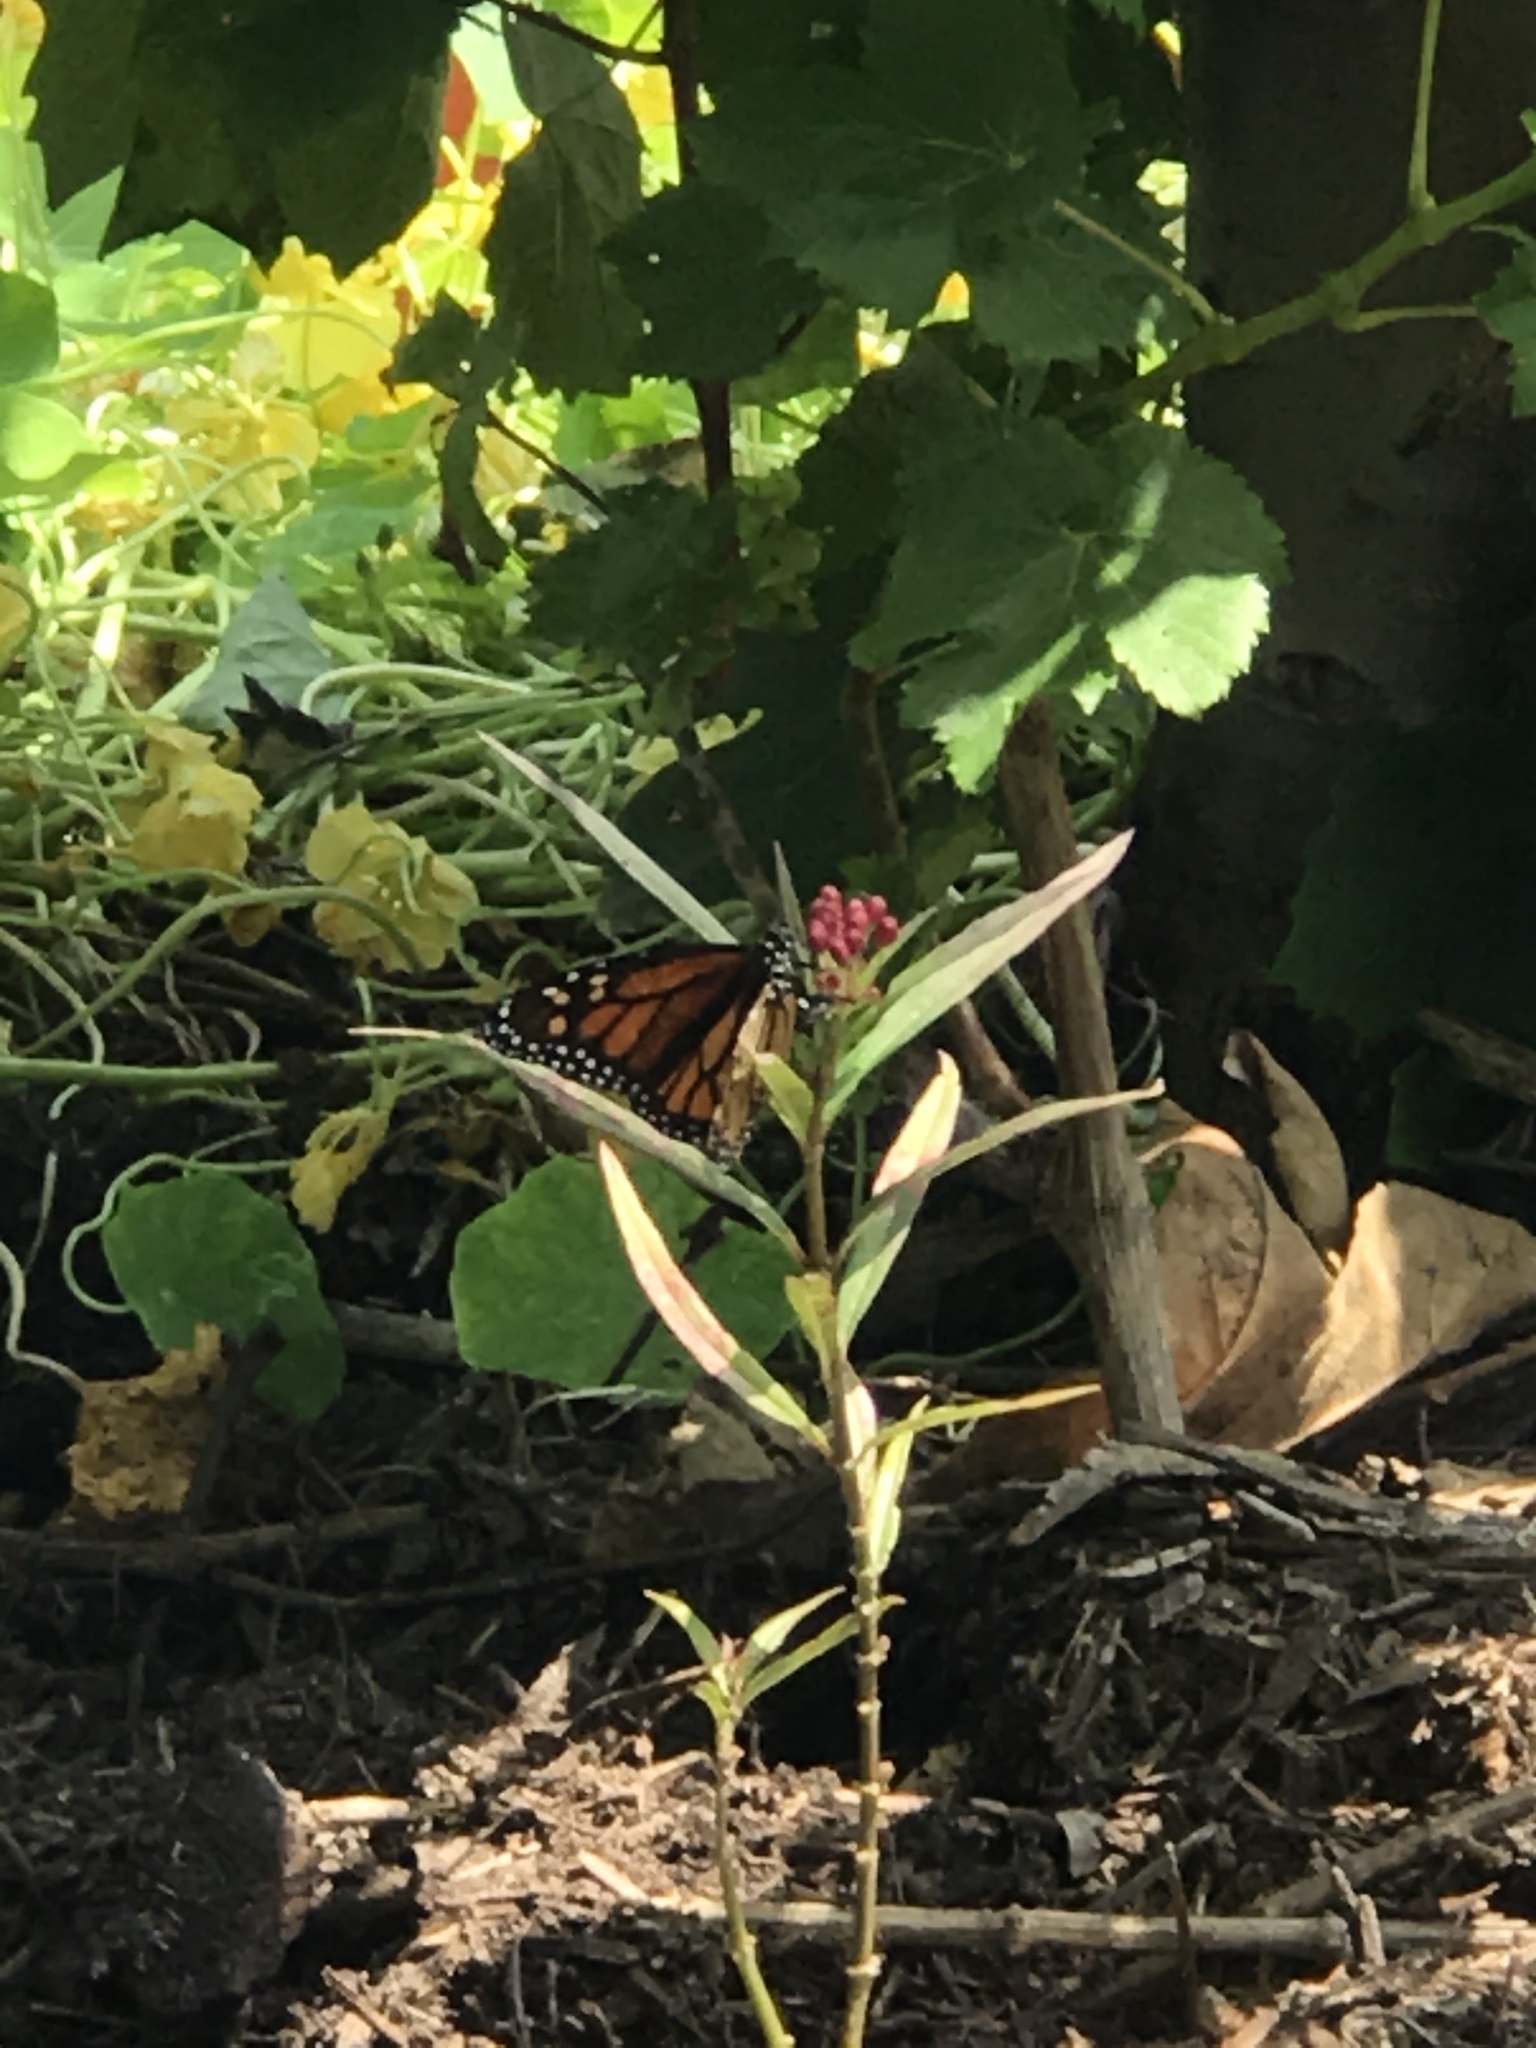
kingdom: Animalia
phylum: Arthropoda
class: Insecta
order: Lepidoptera
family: Nymphalidae
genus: Danaus
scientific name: Danaus plexippus
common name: Monarch
